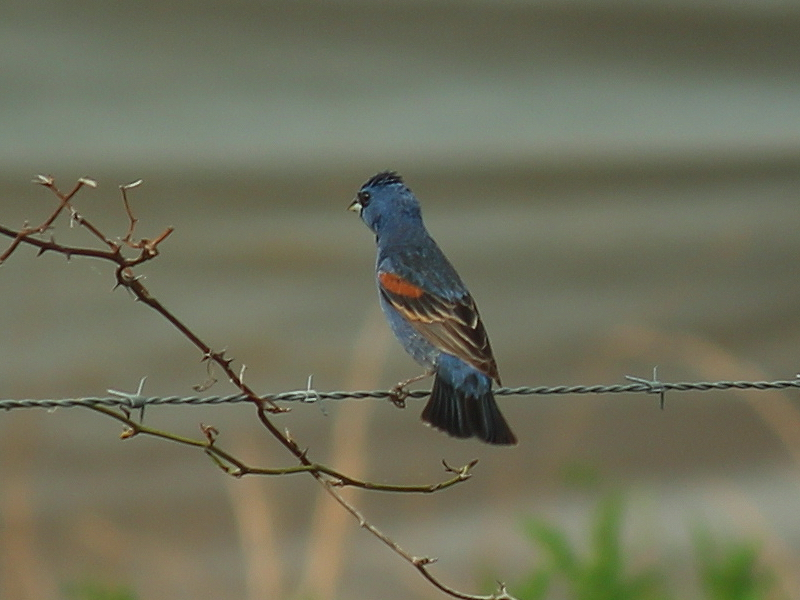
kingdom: Animalia
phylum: Chordata
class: Aves
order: Passeriformes
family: Cardinalidae
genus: Passerina
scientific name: Passerina caerulea
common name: Blue grosbeak
